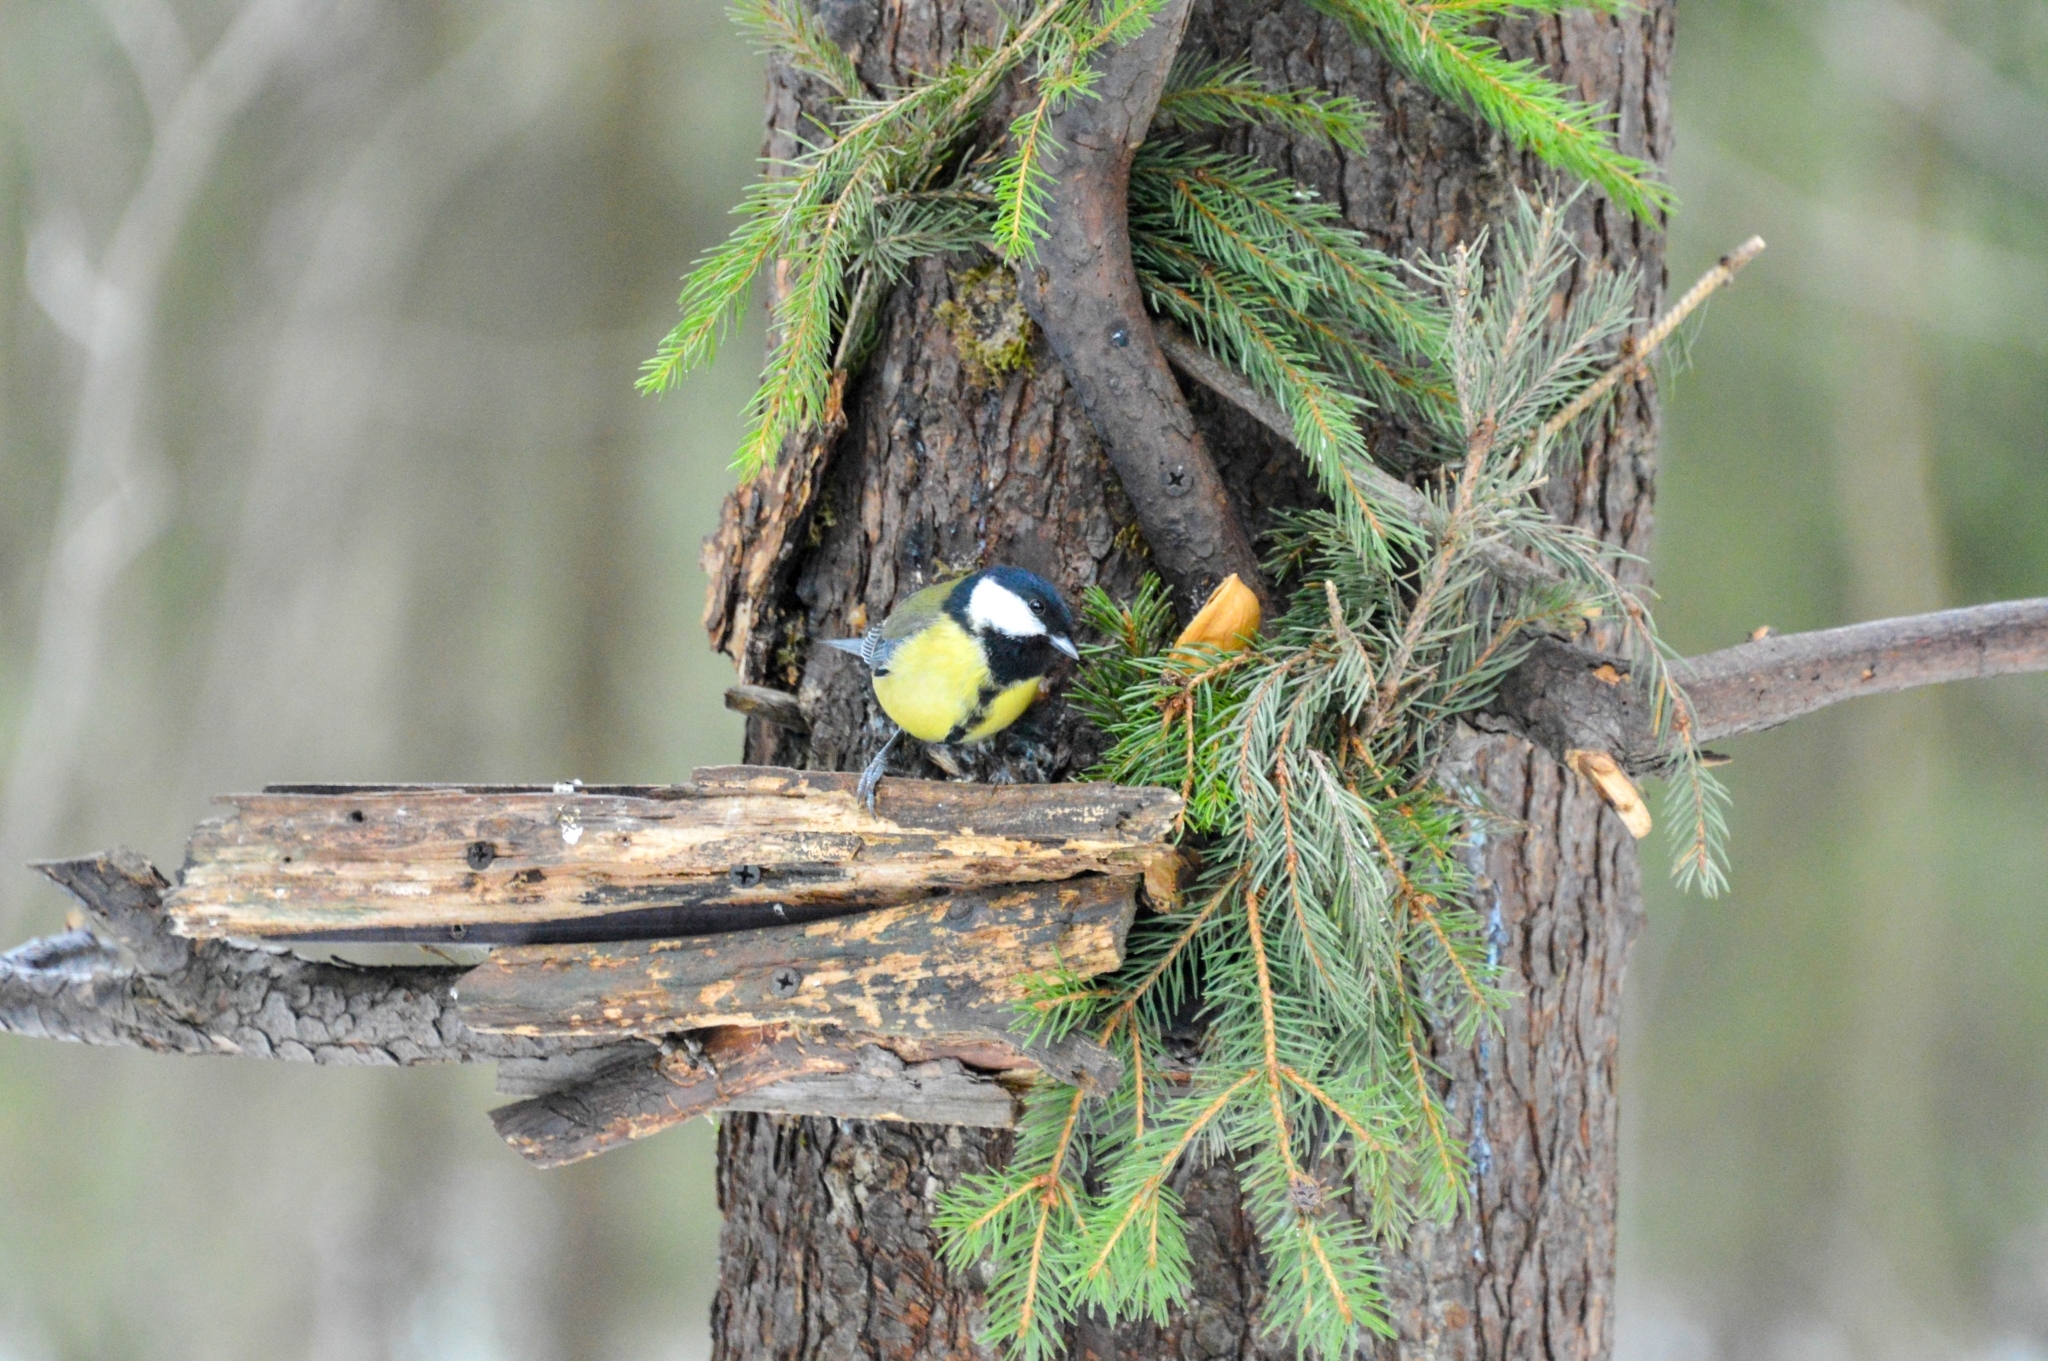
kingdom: Animalia
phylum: Chordata
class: Aves
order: Passeriformes
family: Paridae
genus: Parus
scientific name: Parus major
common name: Great tit
